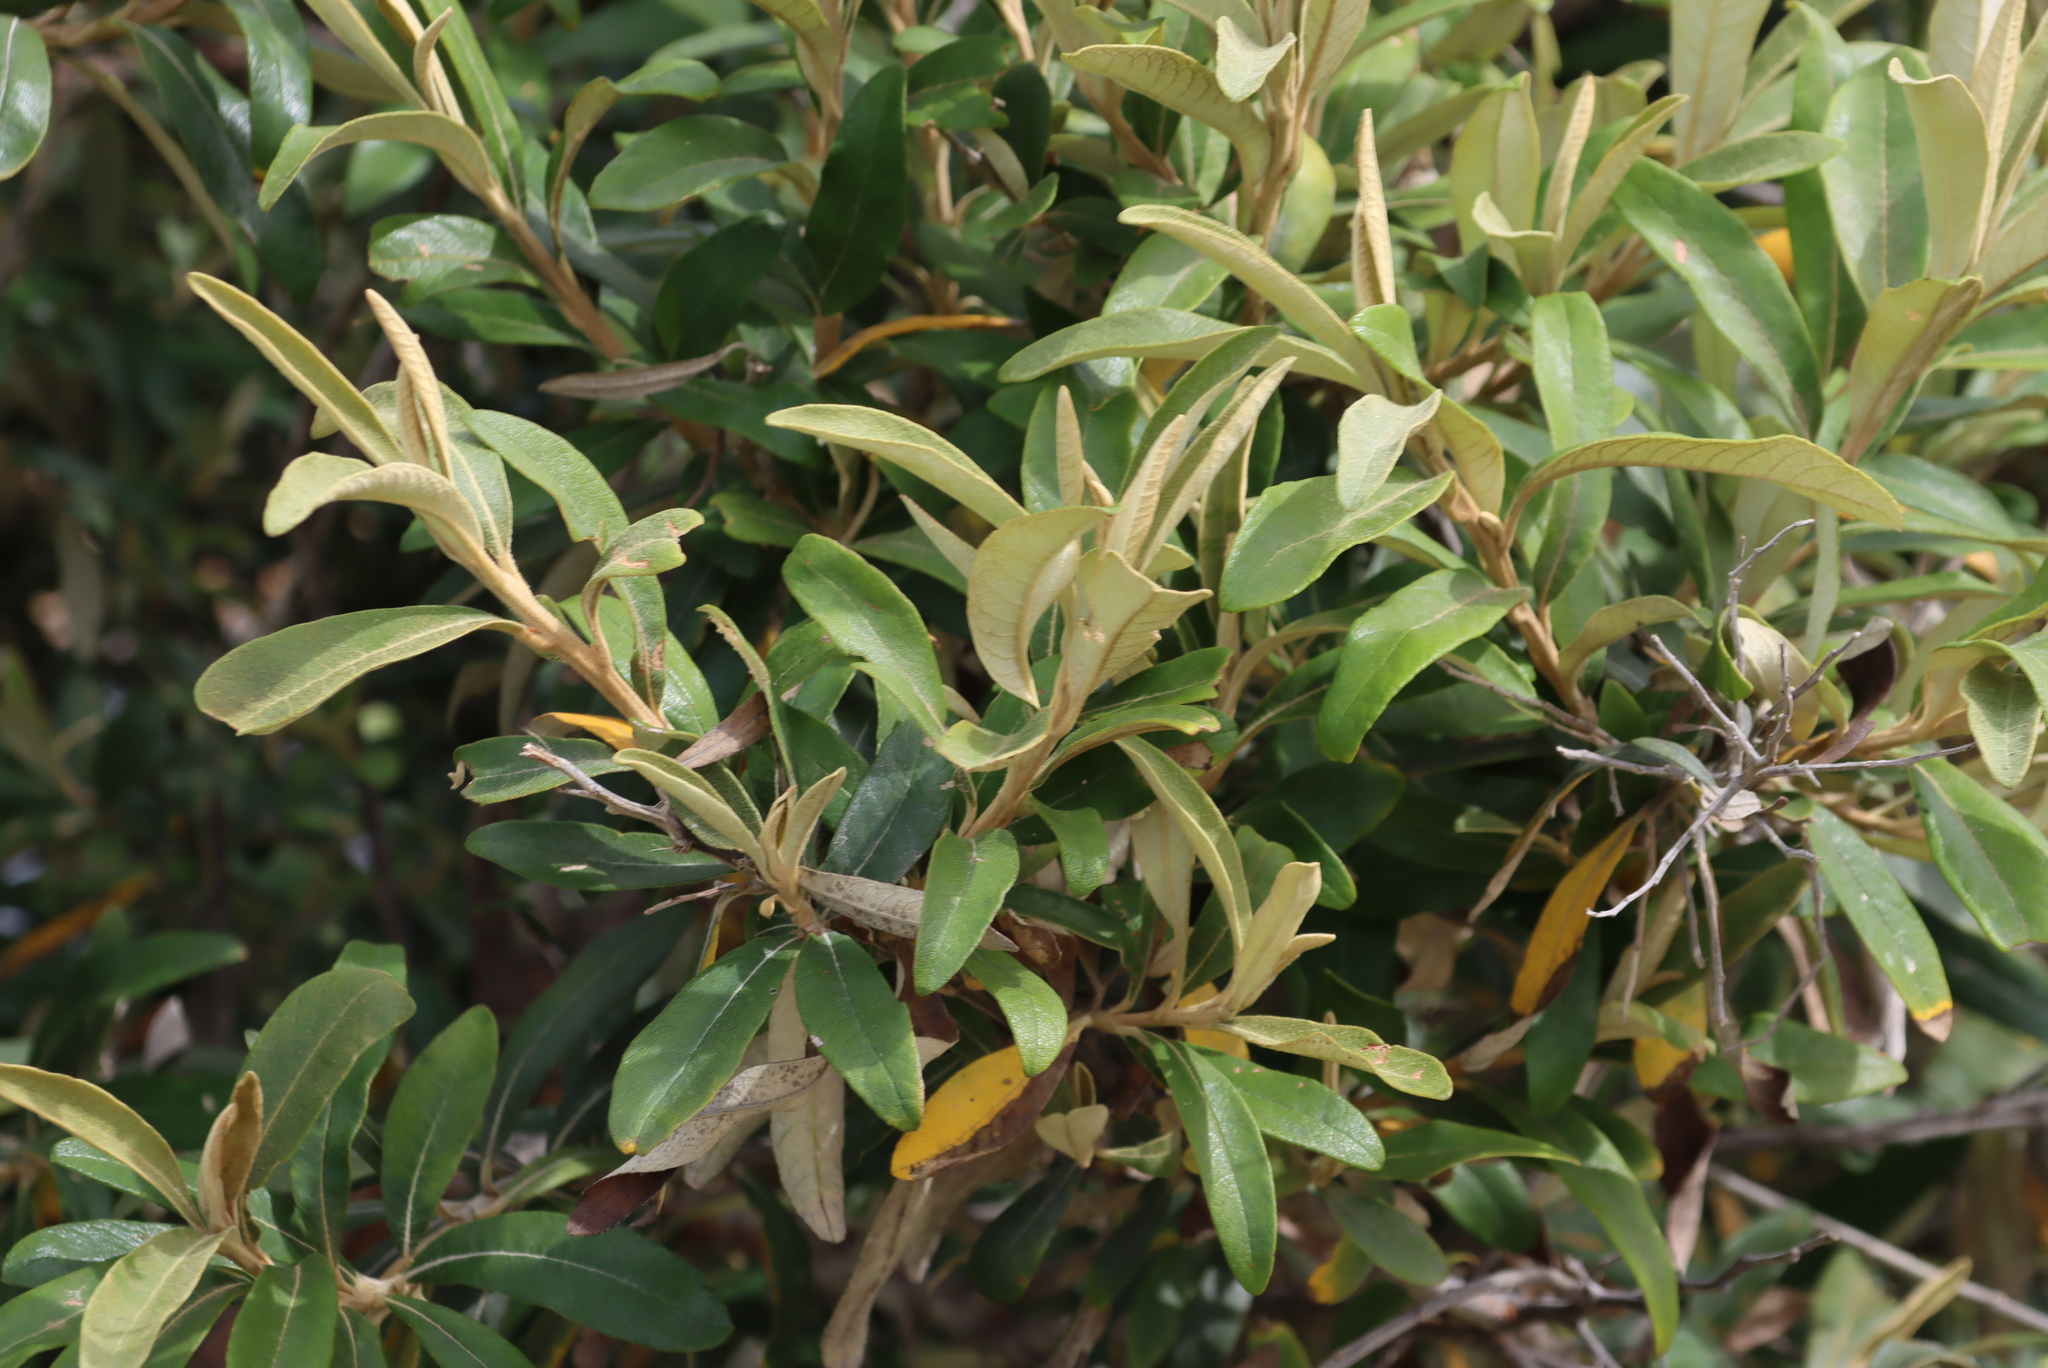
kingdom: Plantae
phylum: Tracheophyta
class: Magnoliopsida
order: Asterales
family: Asteraceae
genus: Tarchonanthus
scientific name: Tarchonanthus littoralis
